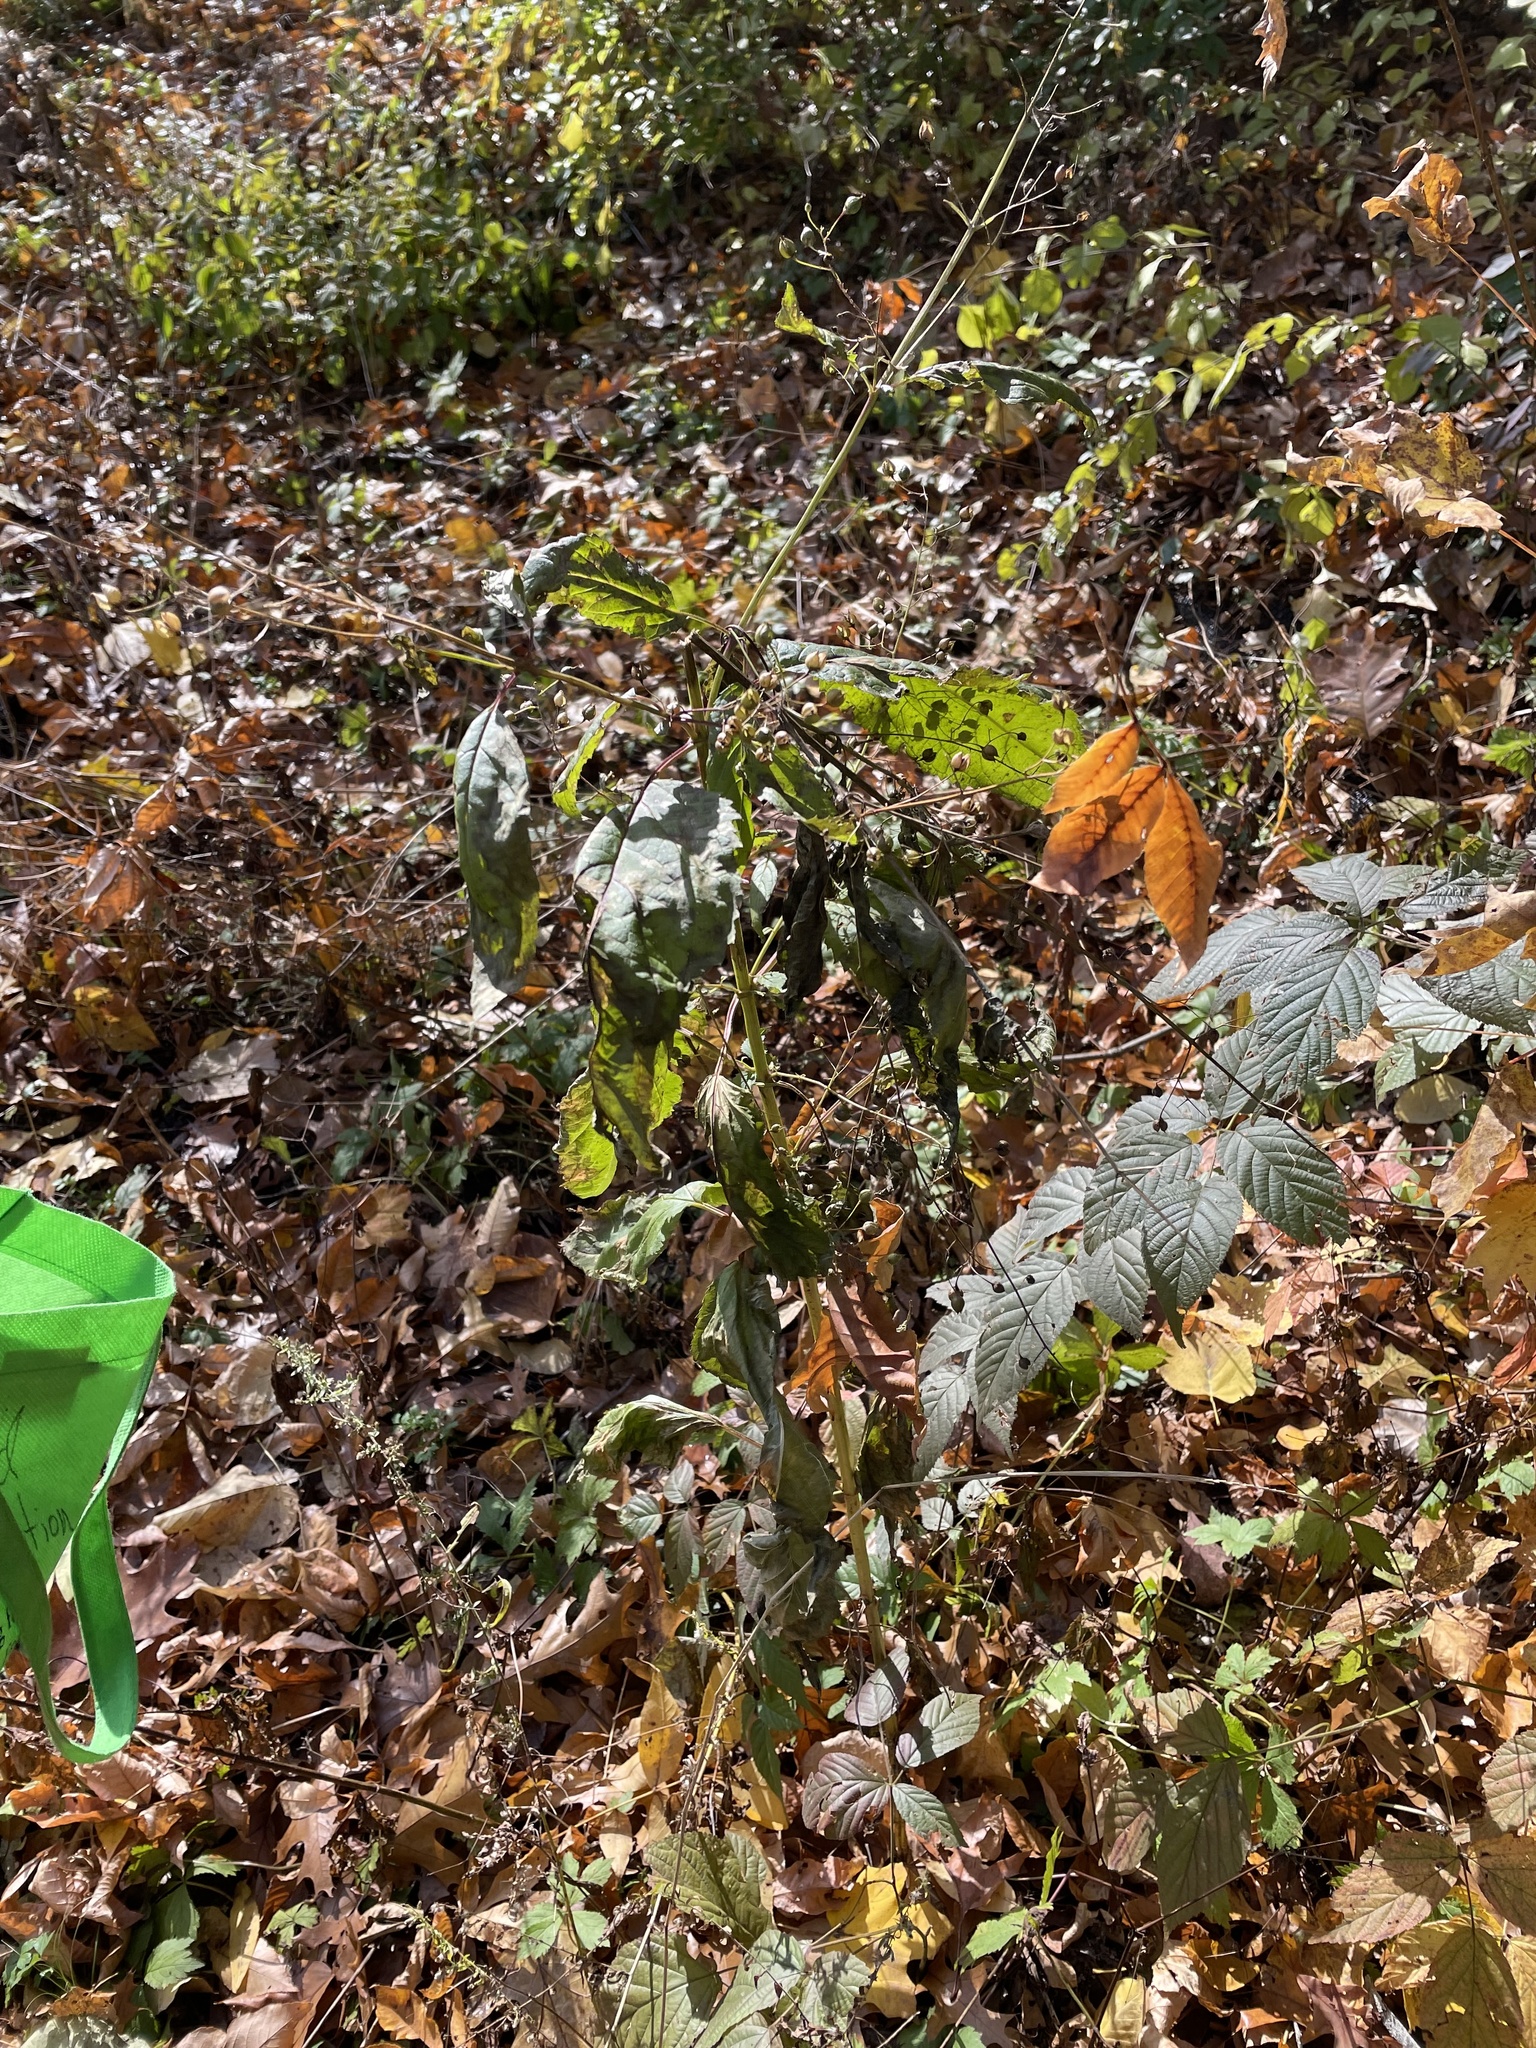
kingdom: Plantae
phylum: Tracheophyta
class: Magnoliopsida
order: Lamiales
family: Scrophulariaceae
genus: Scrophularia
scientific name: Scrophularia marilandica
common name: Eastern figwort
